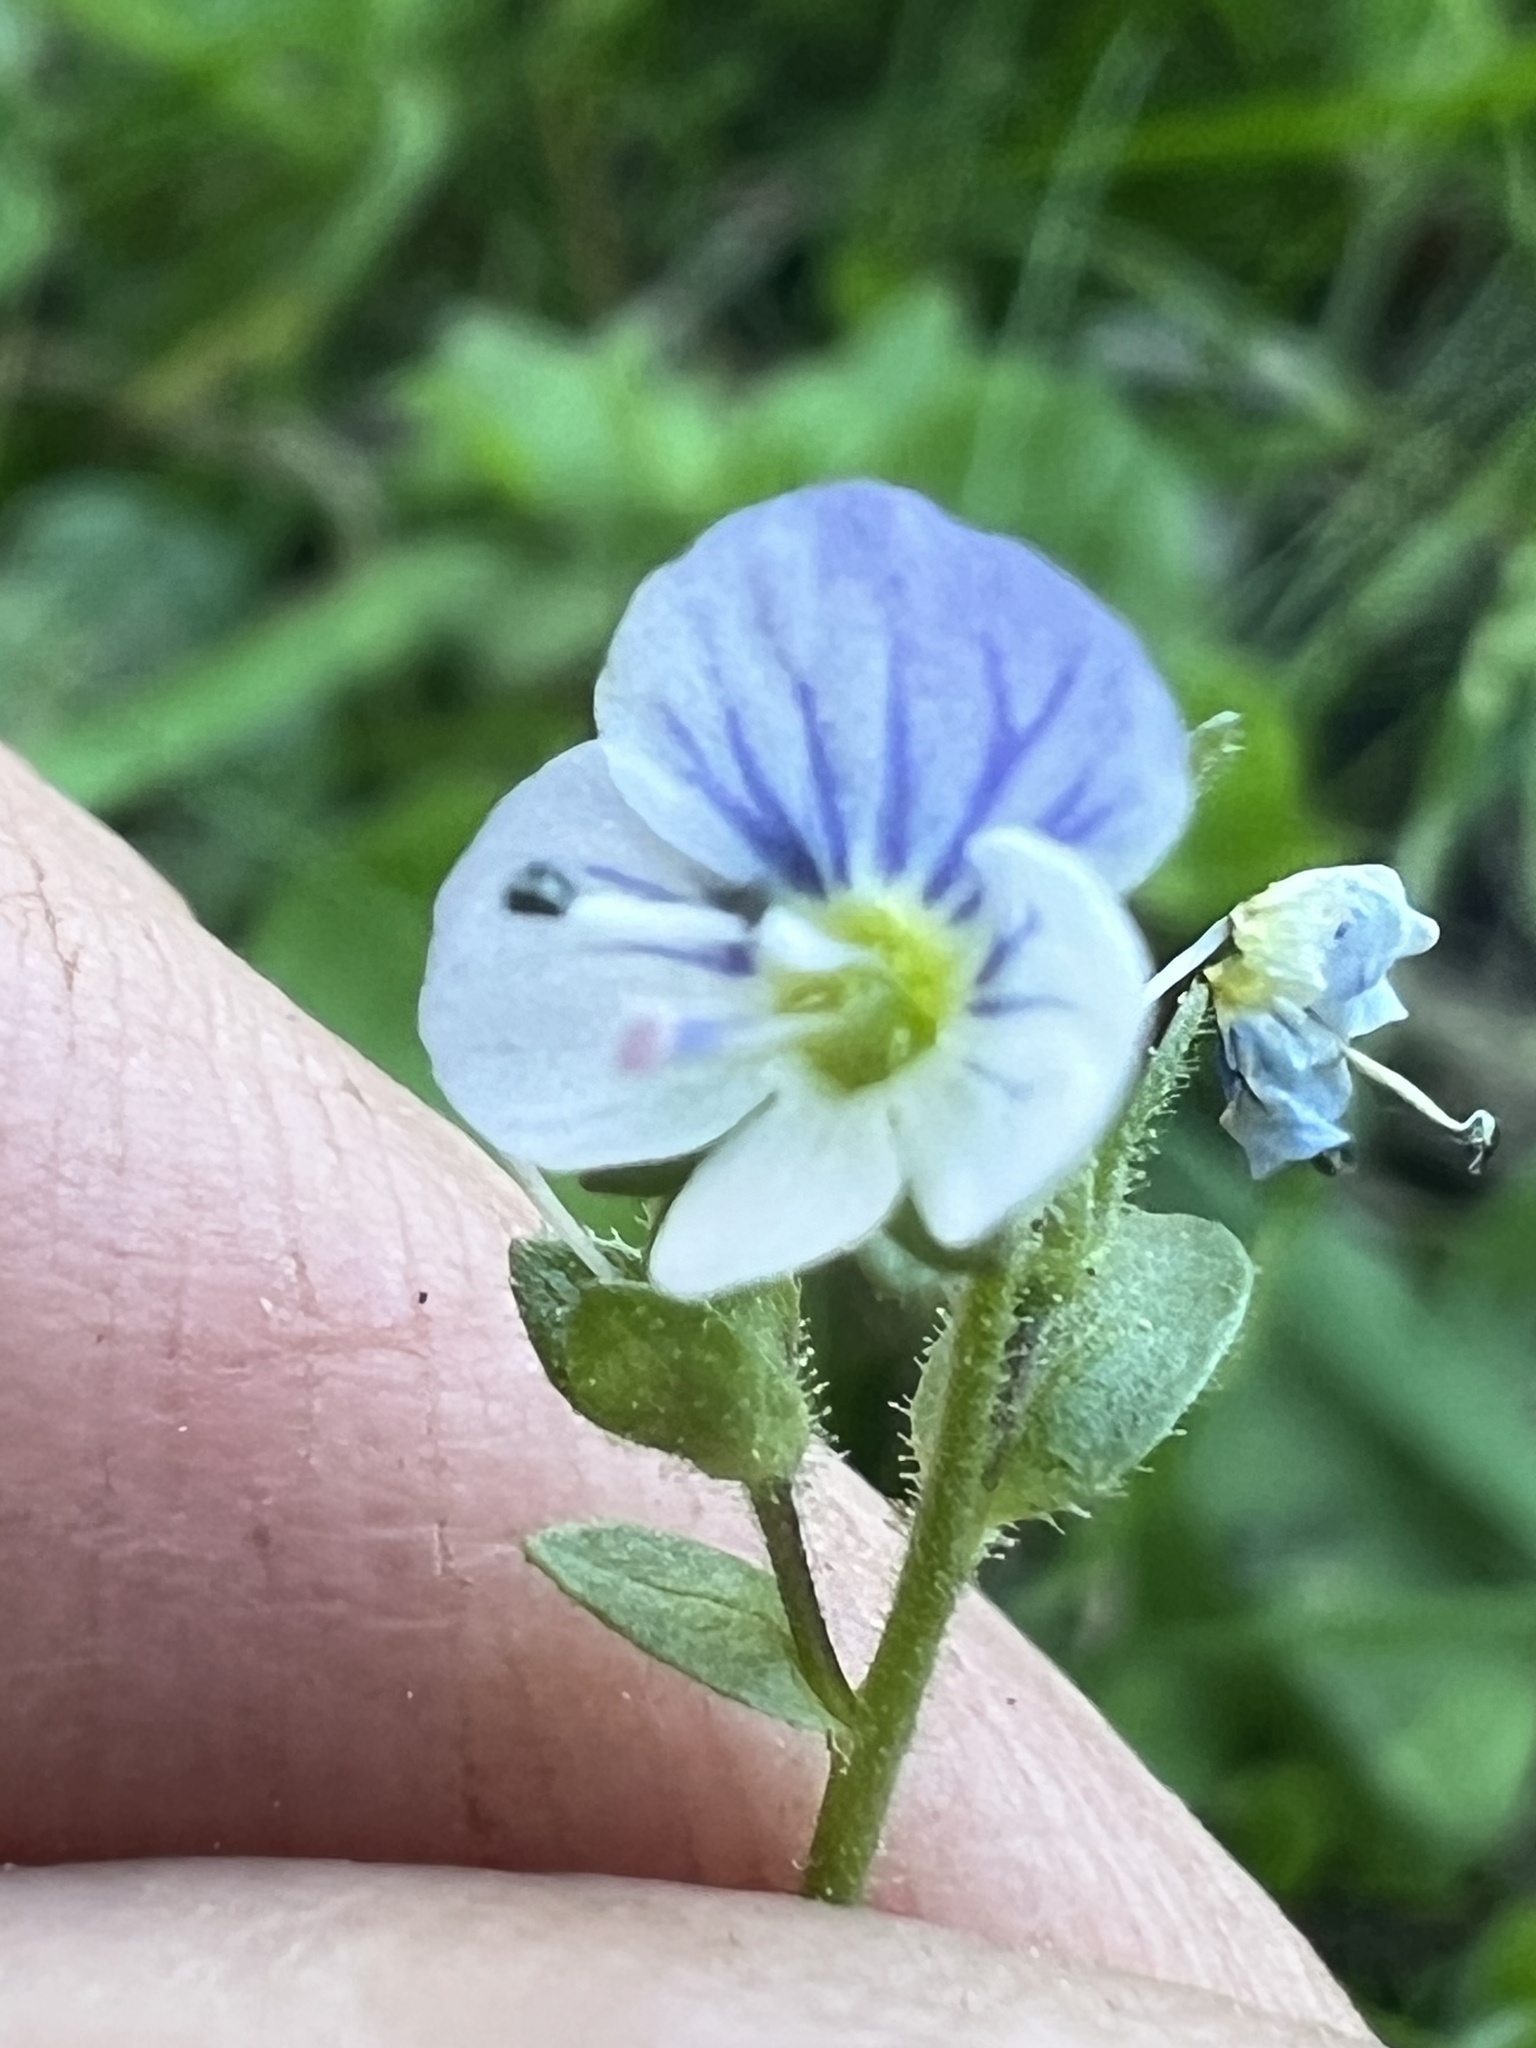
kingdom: Plantae
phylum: Tracheophyta
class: Magnoliopsida
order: Lamiales
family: Plantaginaceae
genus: Veronica
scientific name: Veronica serpyllifolia
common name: Thyme-leaved speedwell
